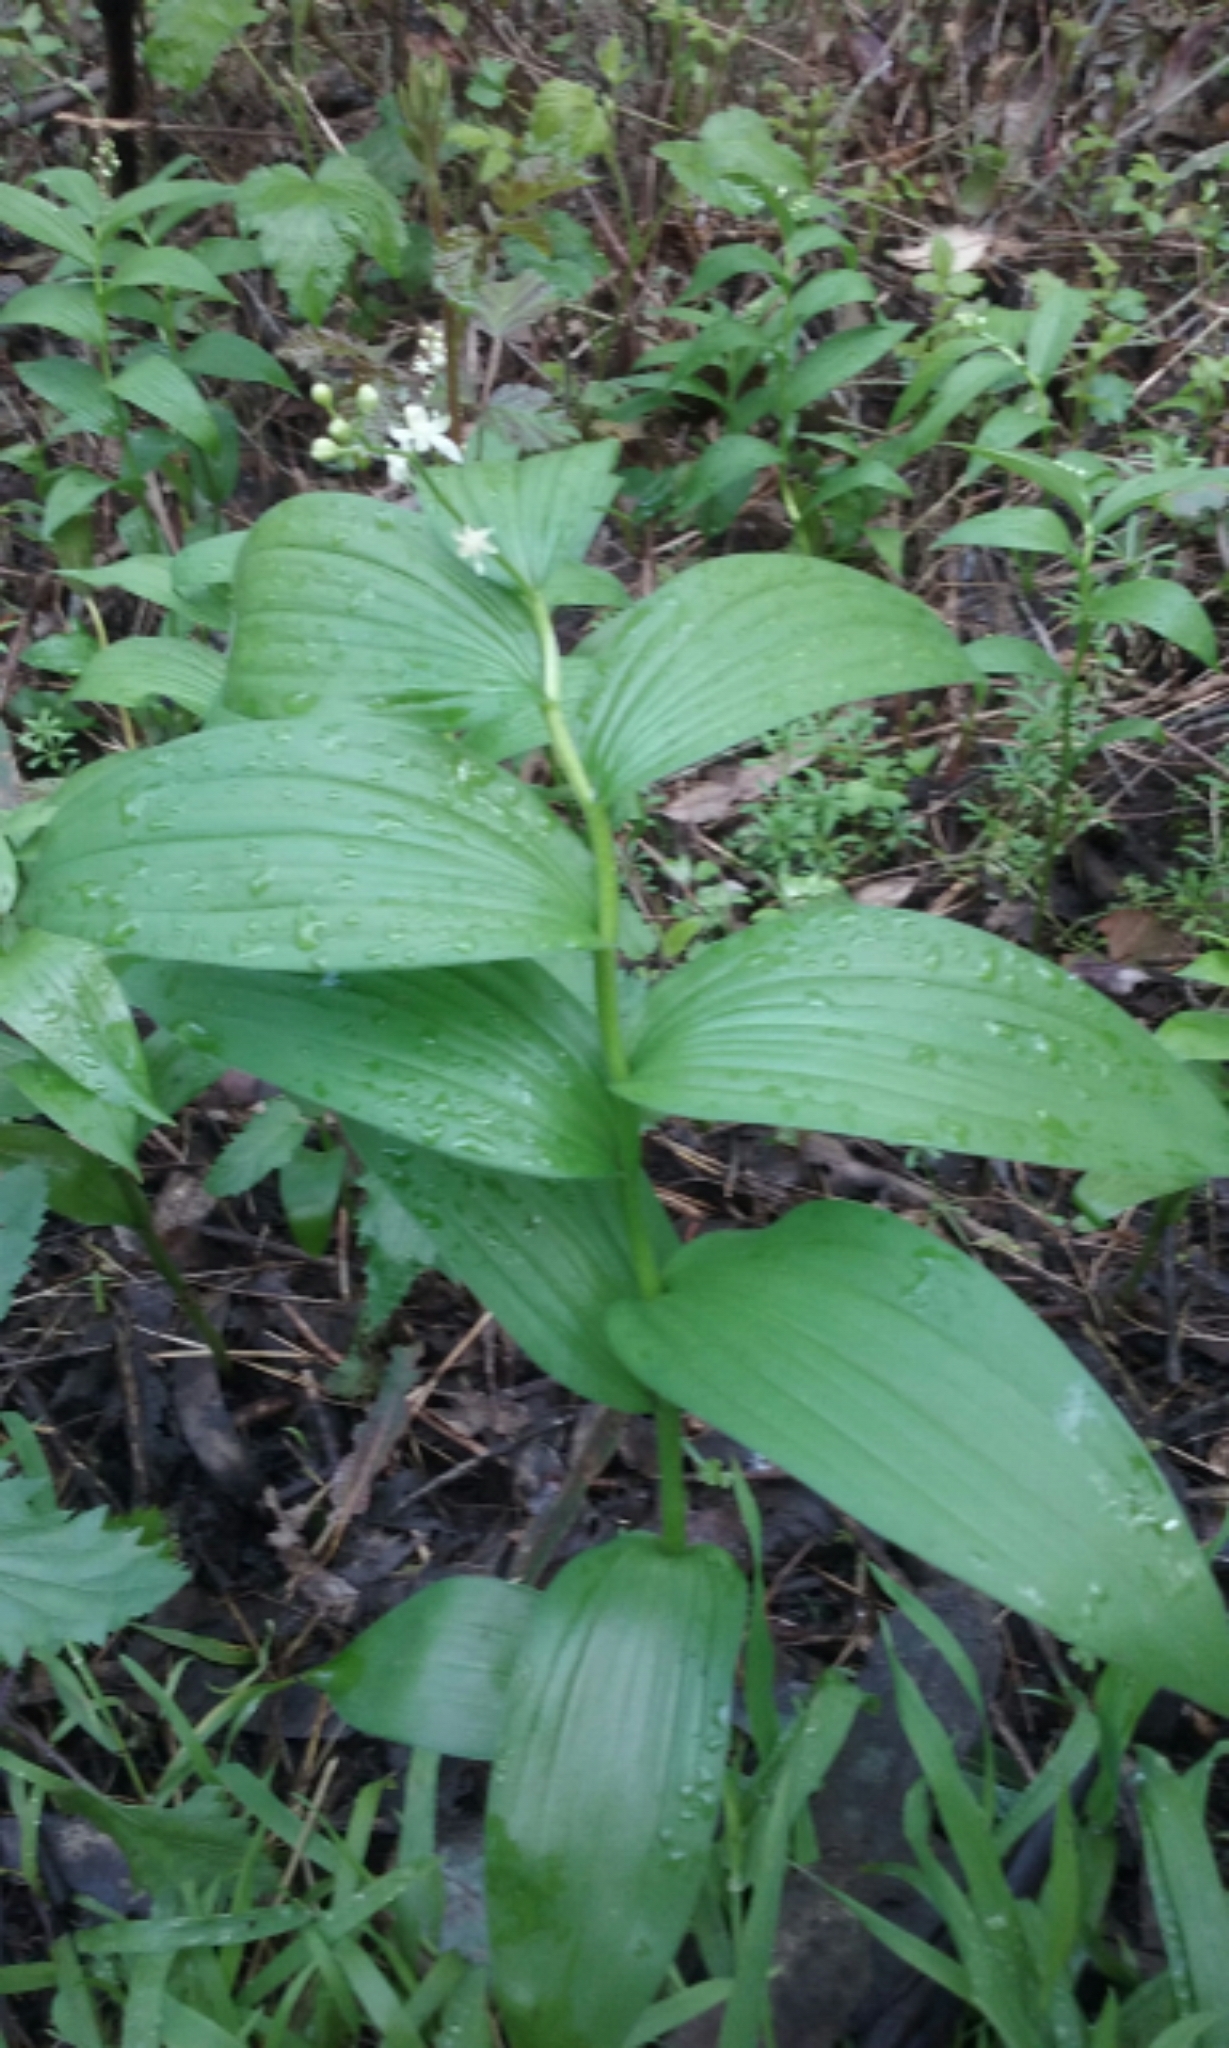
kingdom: Plantae
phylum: Tracheophyta
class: Liliopsida
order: Asparagales
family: Asparagaceae
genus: Maianthemum
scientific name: Maianthemum stellatum
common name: Little false solomon's seal
